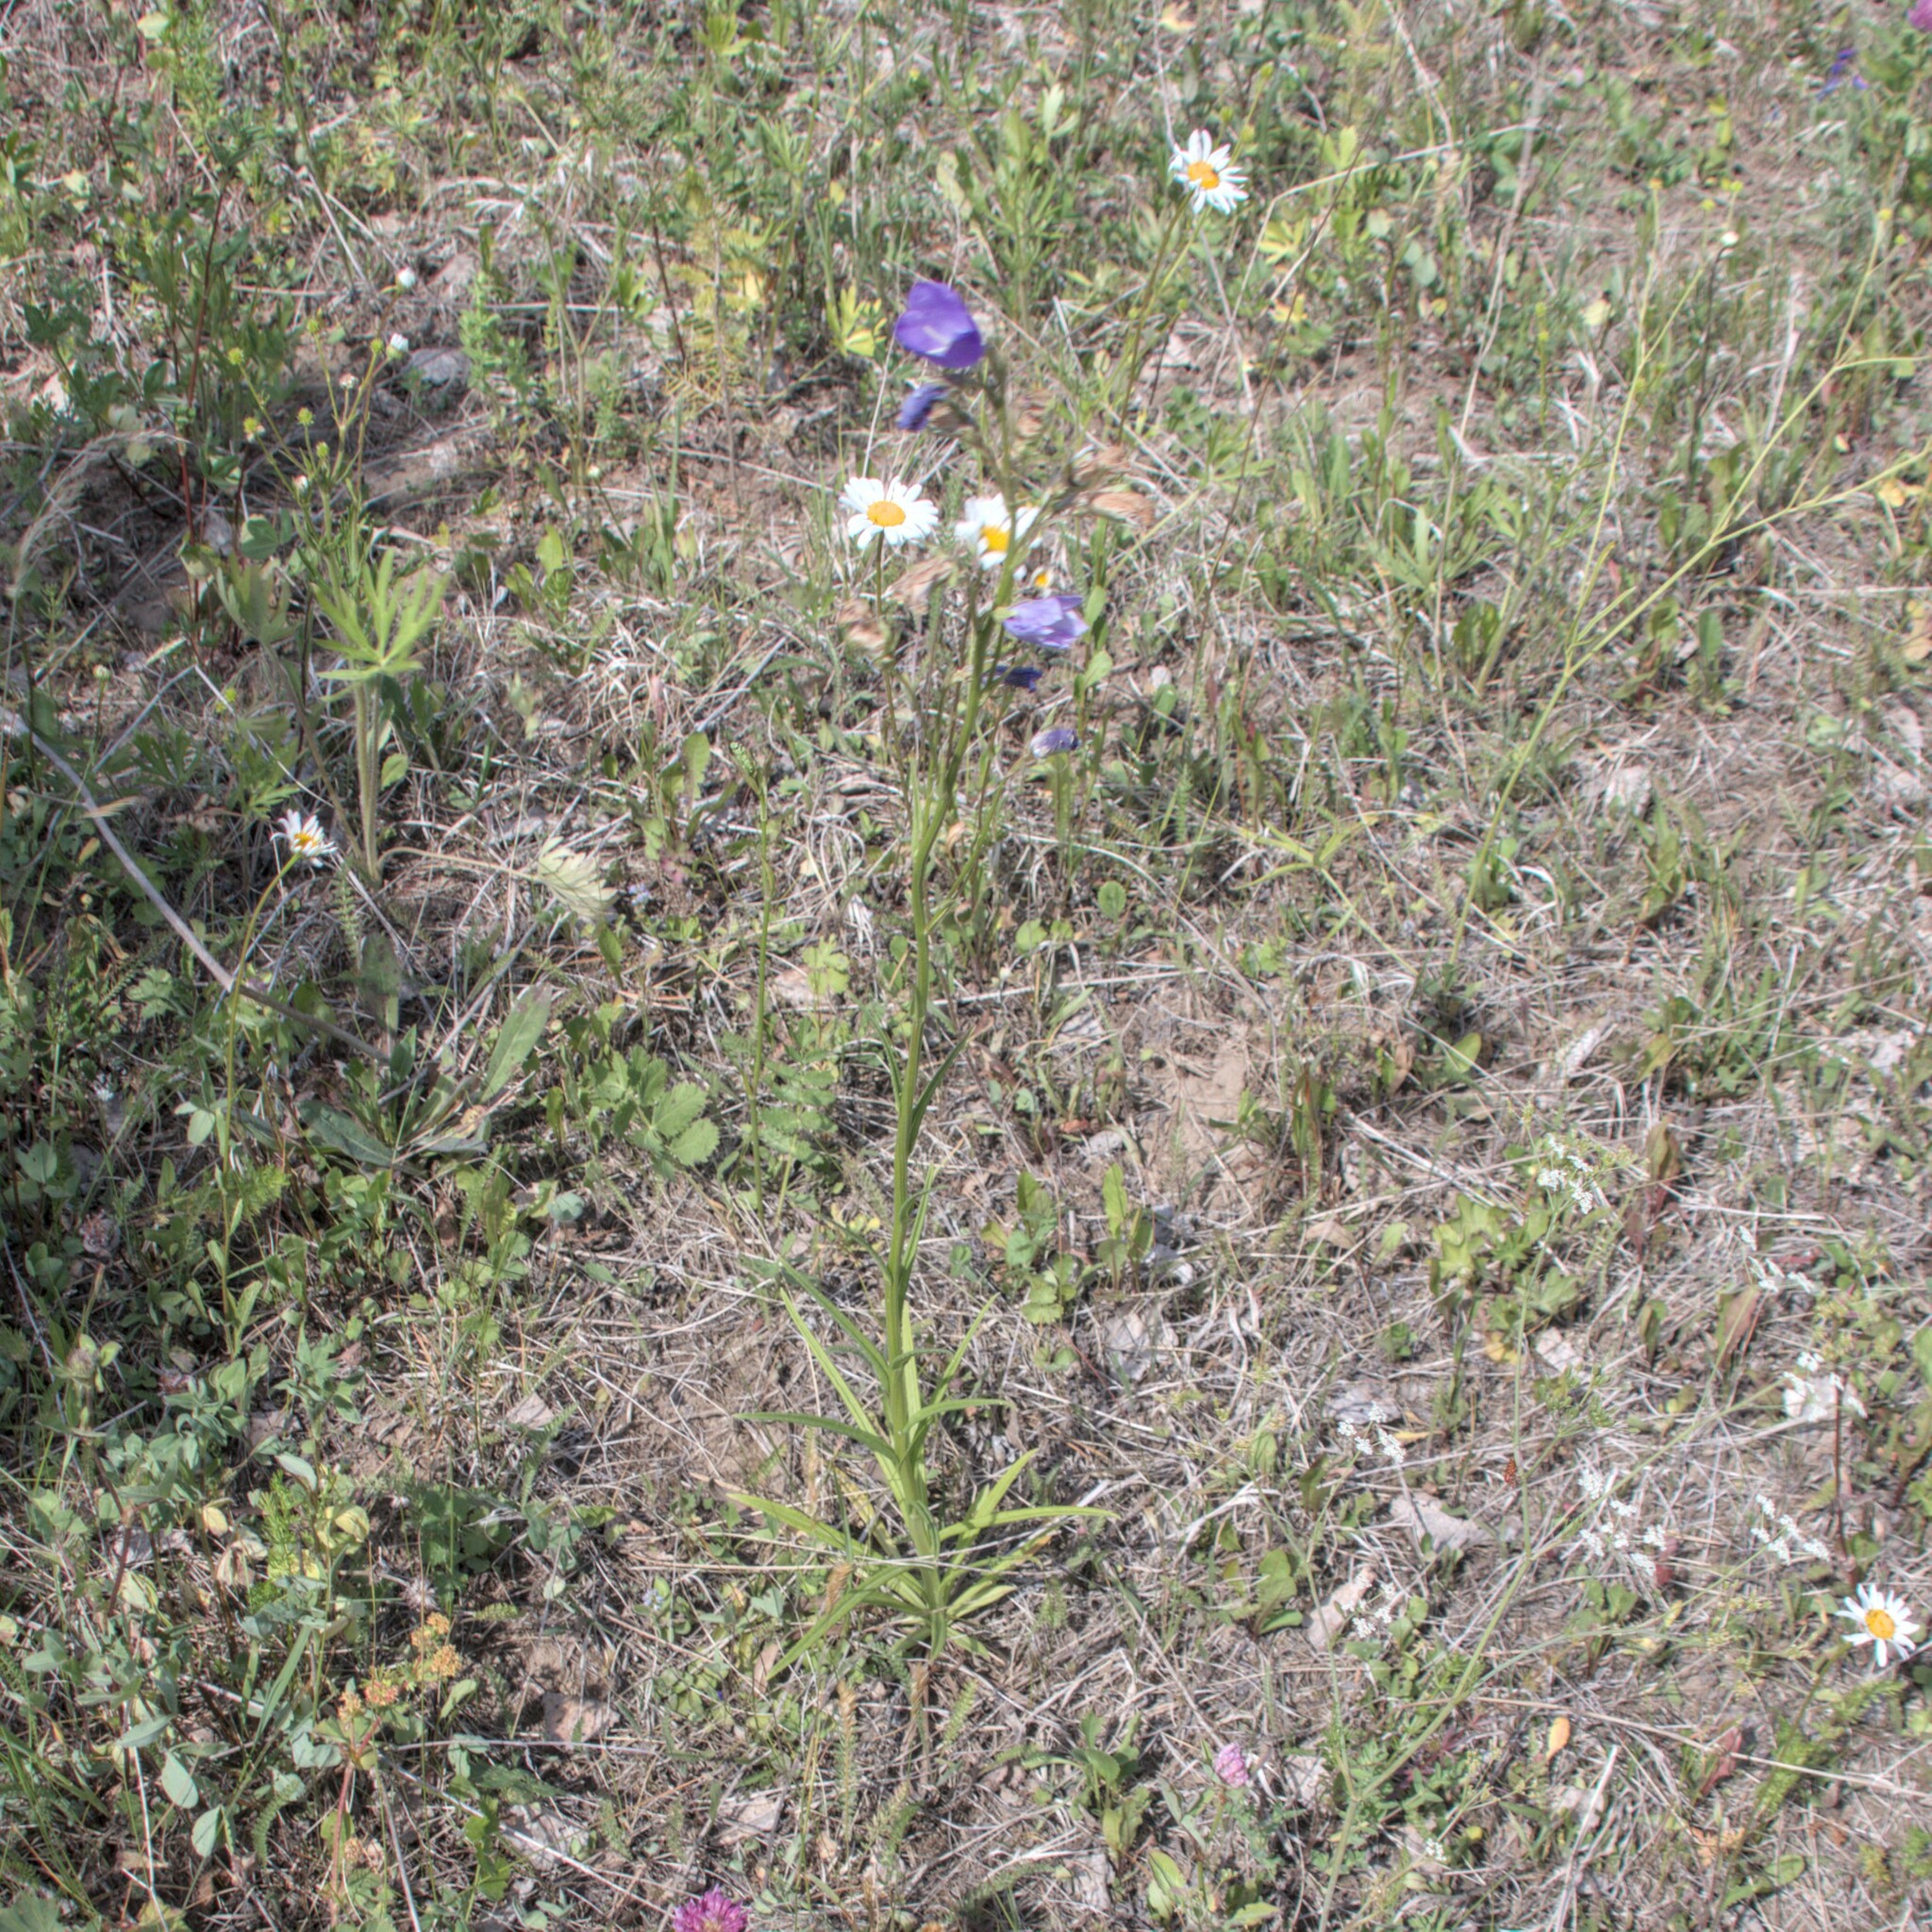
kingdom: Plantae
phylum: Tracheophyta
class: Magnoliopsida
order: Asterales
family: Campanulaceae
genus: Campanula
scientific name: Campanula persicifolia
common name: Peach-leaved bellflower
